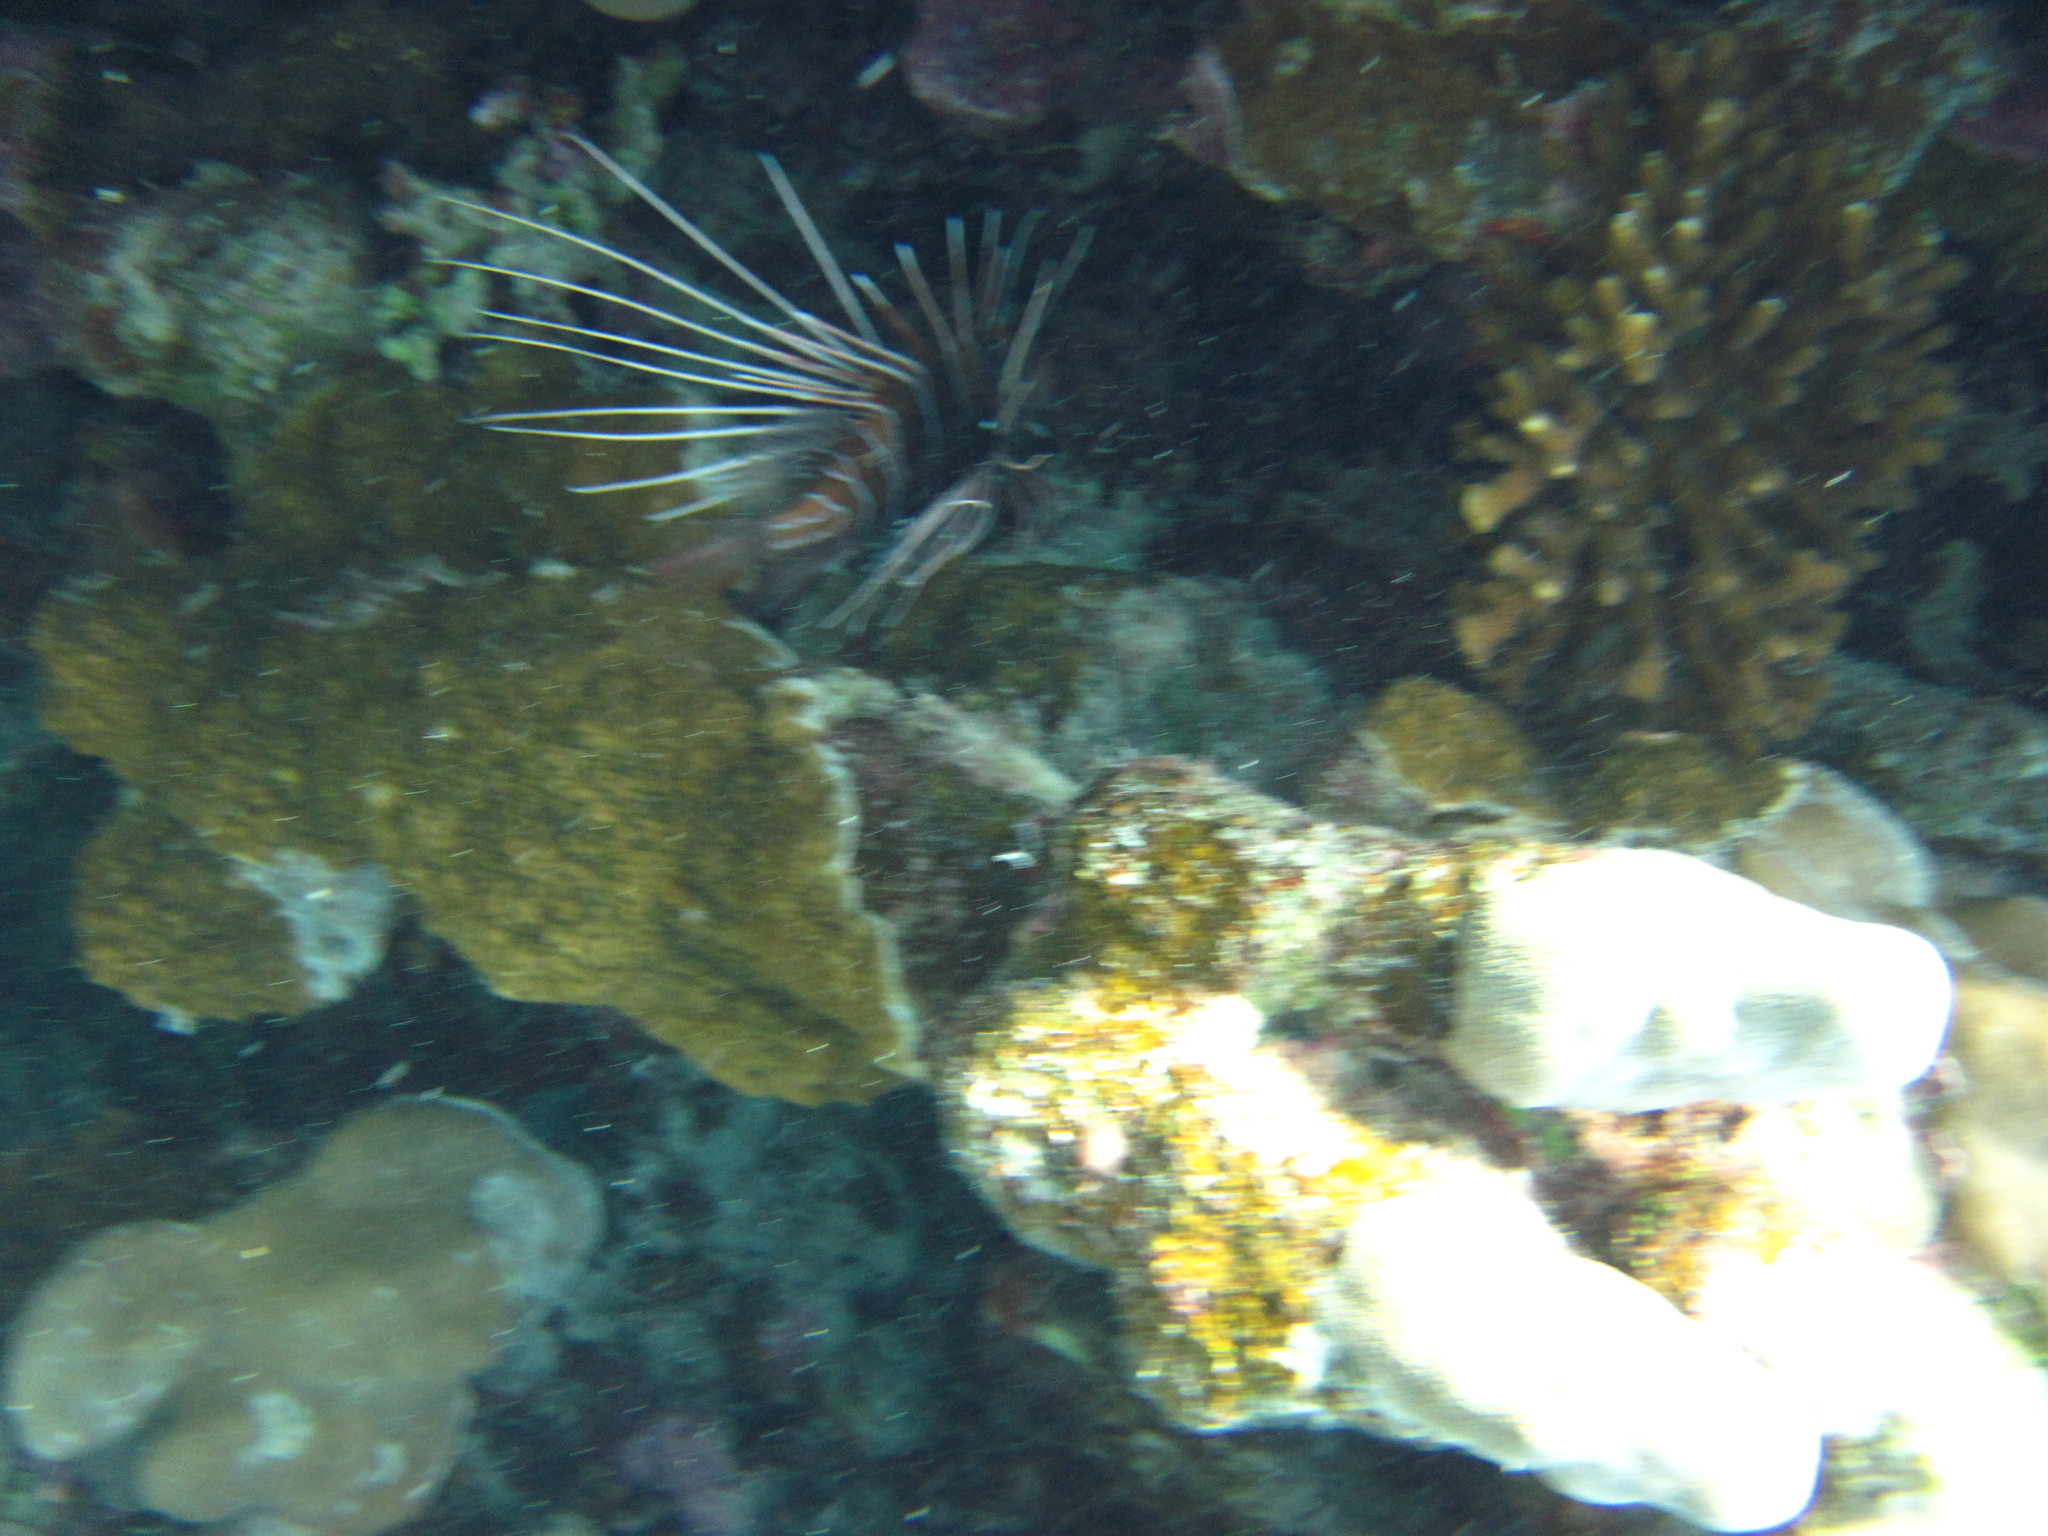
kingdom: Animalia
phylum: Chordata
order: Scorpaeniformes
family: Scorpaenidae
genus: Pterois
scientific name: Pterois cincta
